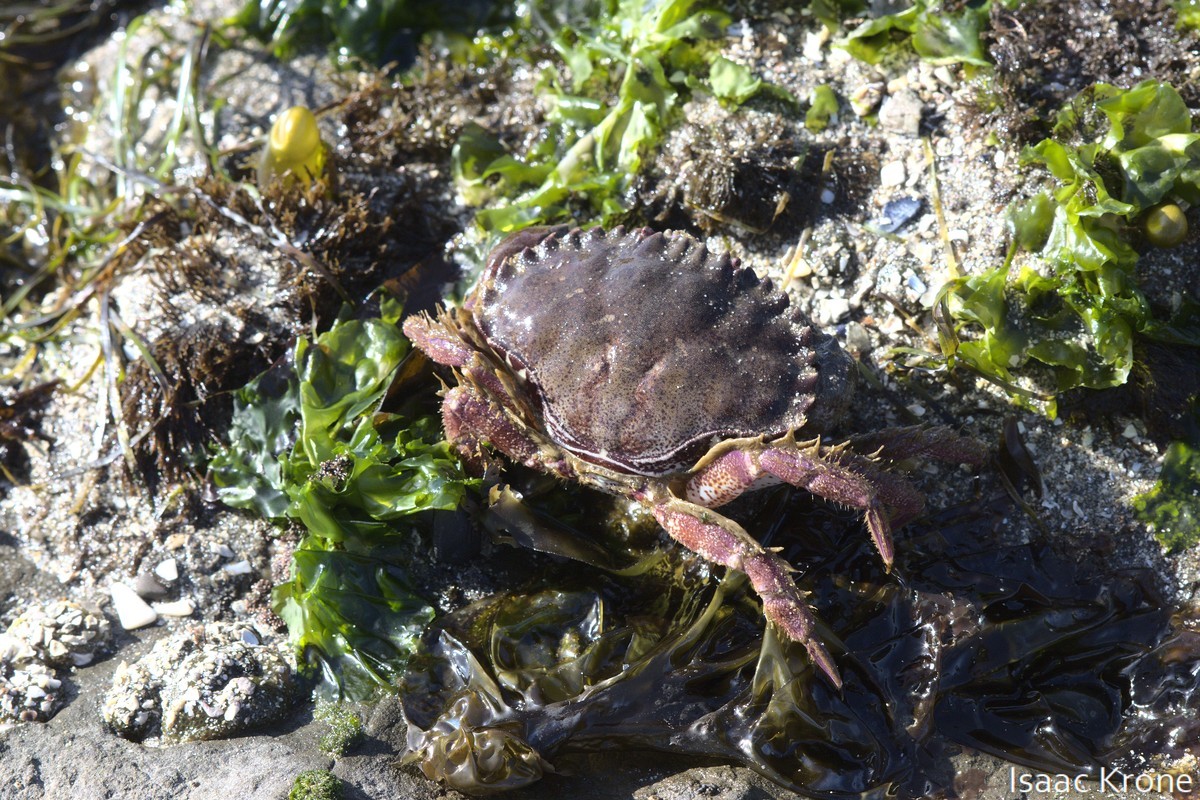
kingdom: Animalia
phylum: Arthropoda
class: Malacostraca
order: Decapoda
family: Cancridae
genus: Romaleon
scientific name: Romaleon antennarium
